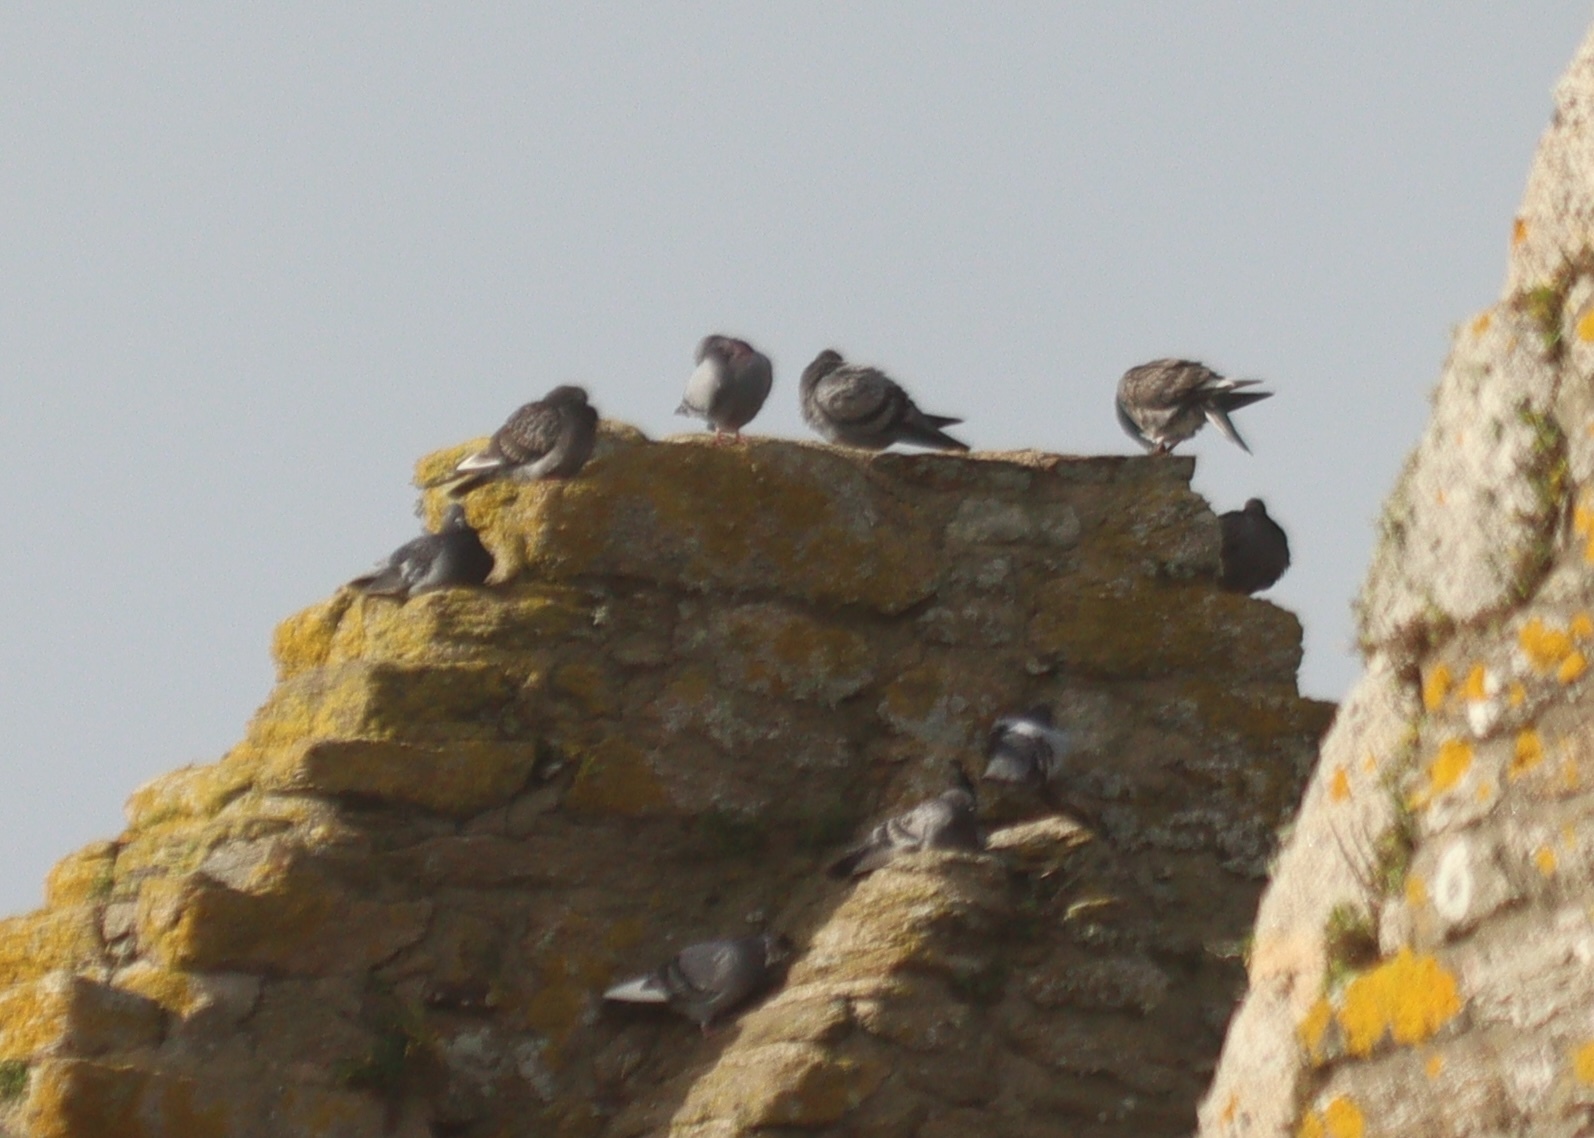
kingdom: Animalia
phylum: Chordata
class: Aves
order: Columbiformes
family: Columbidae
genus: Columba
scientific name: Columba livia
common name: Rock pigeon
